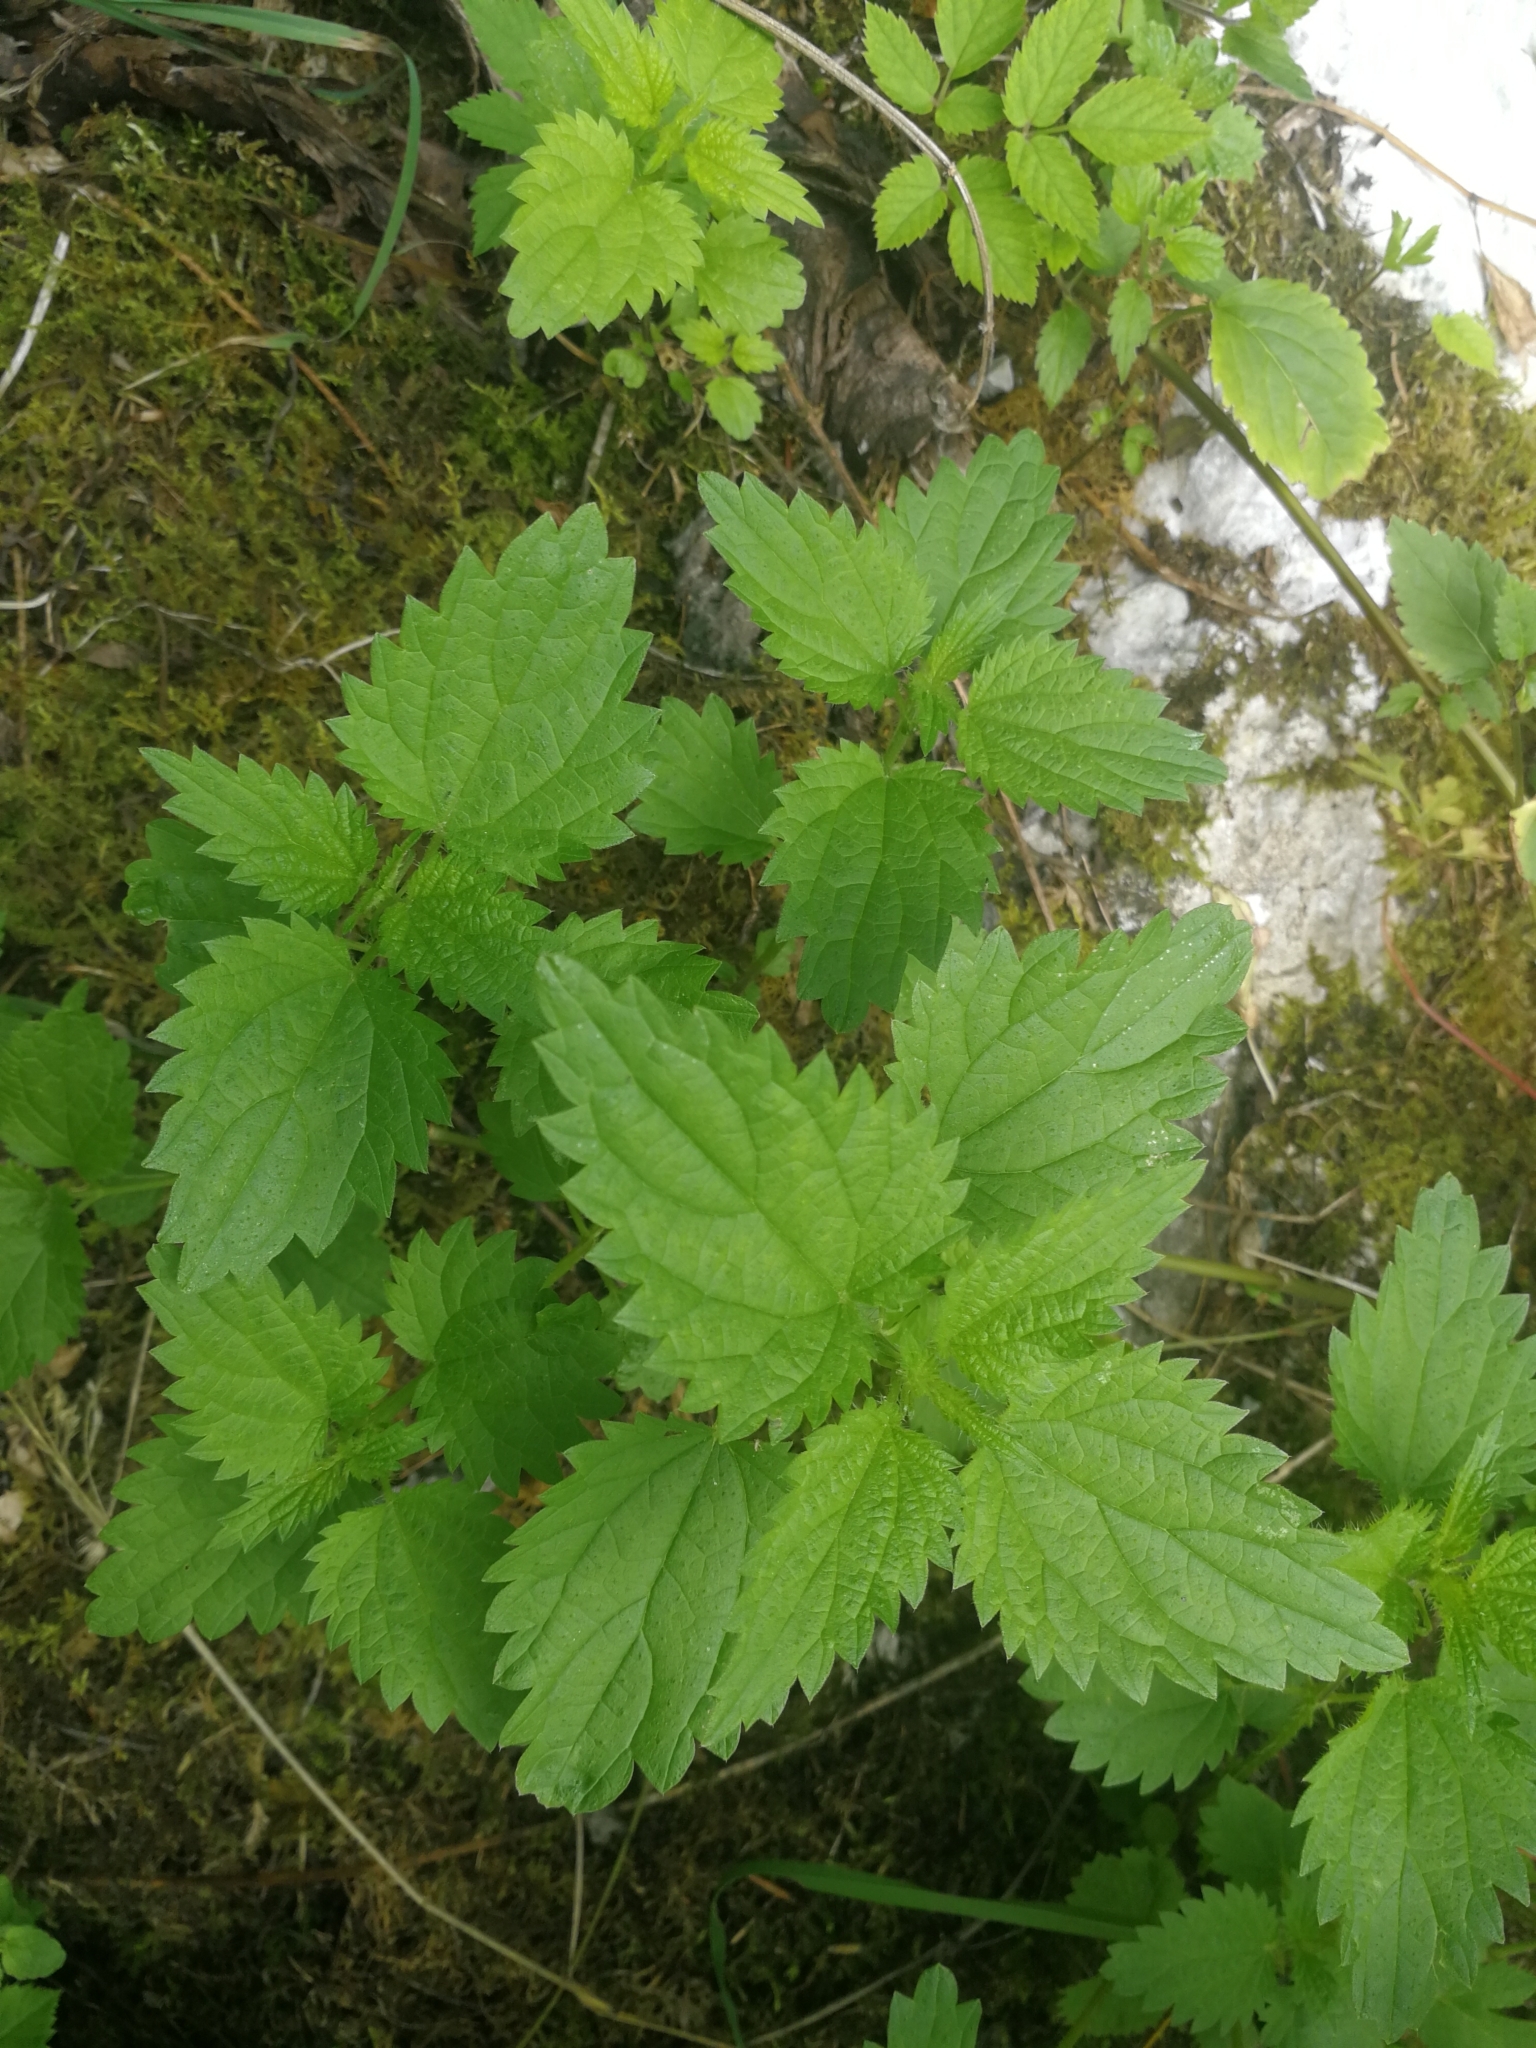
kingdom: Plantae
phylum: Tracheophyta
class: Magnoliopsida
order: Rosales
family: Urticaceae
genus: Urtica
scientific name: Urtica dioica
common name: Common nettle
